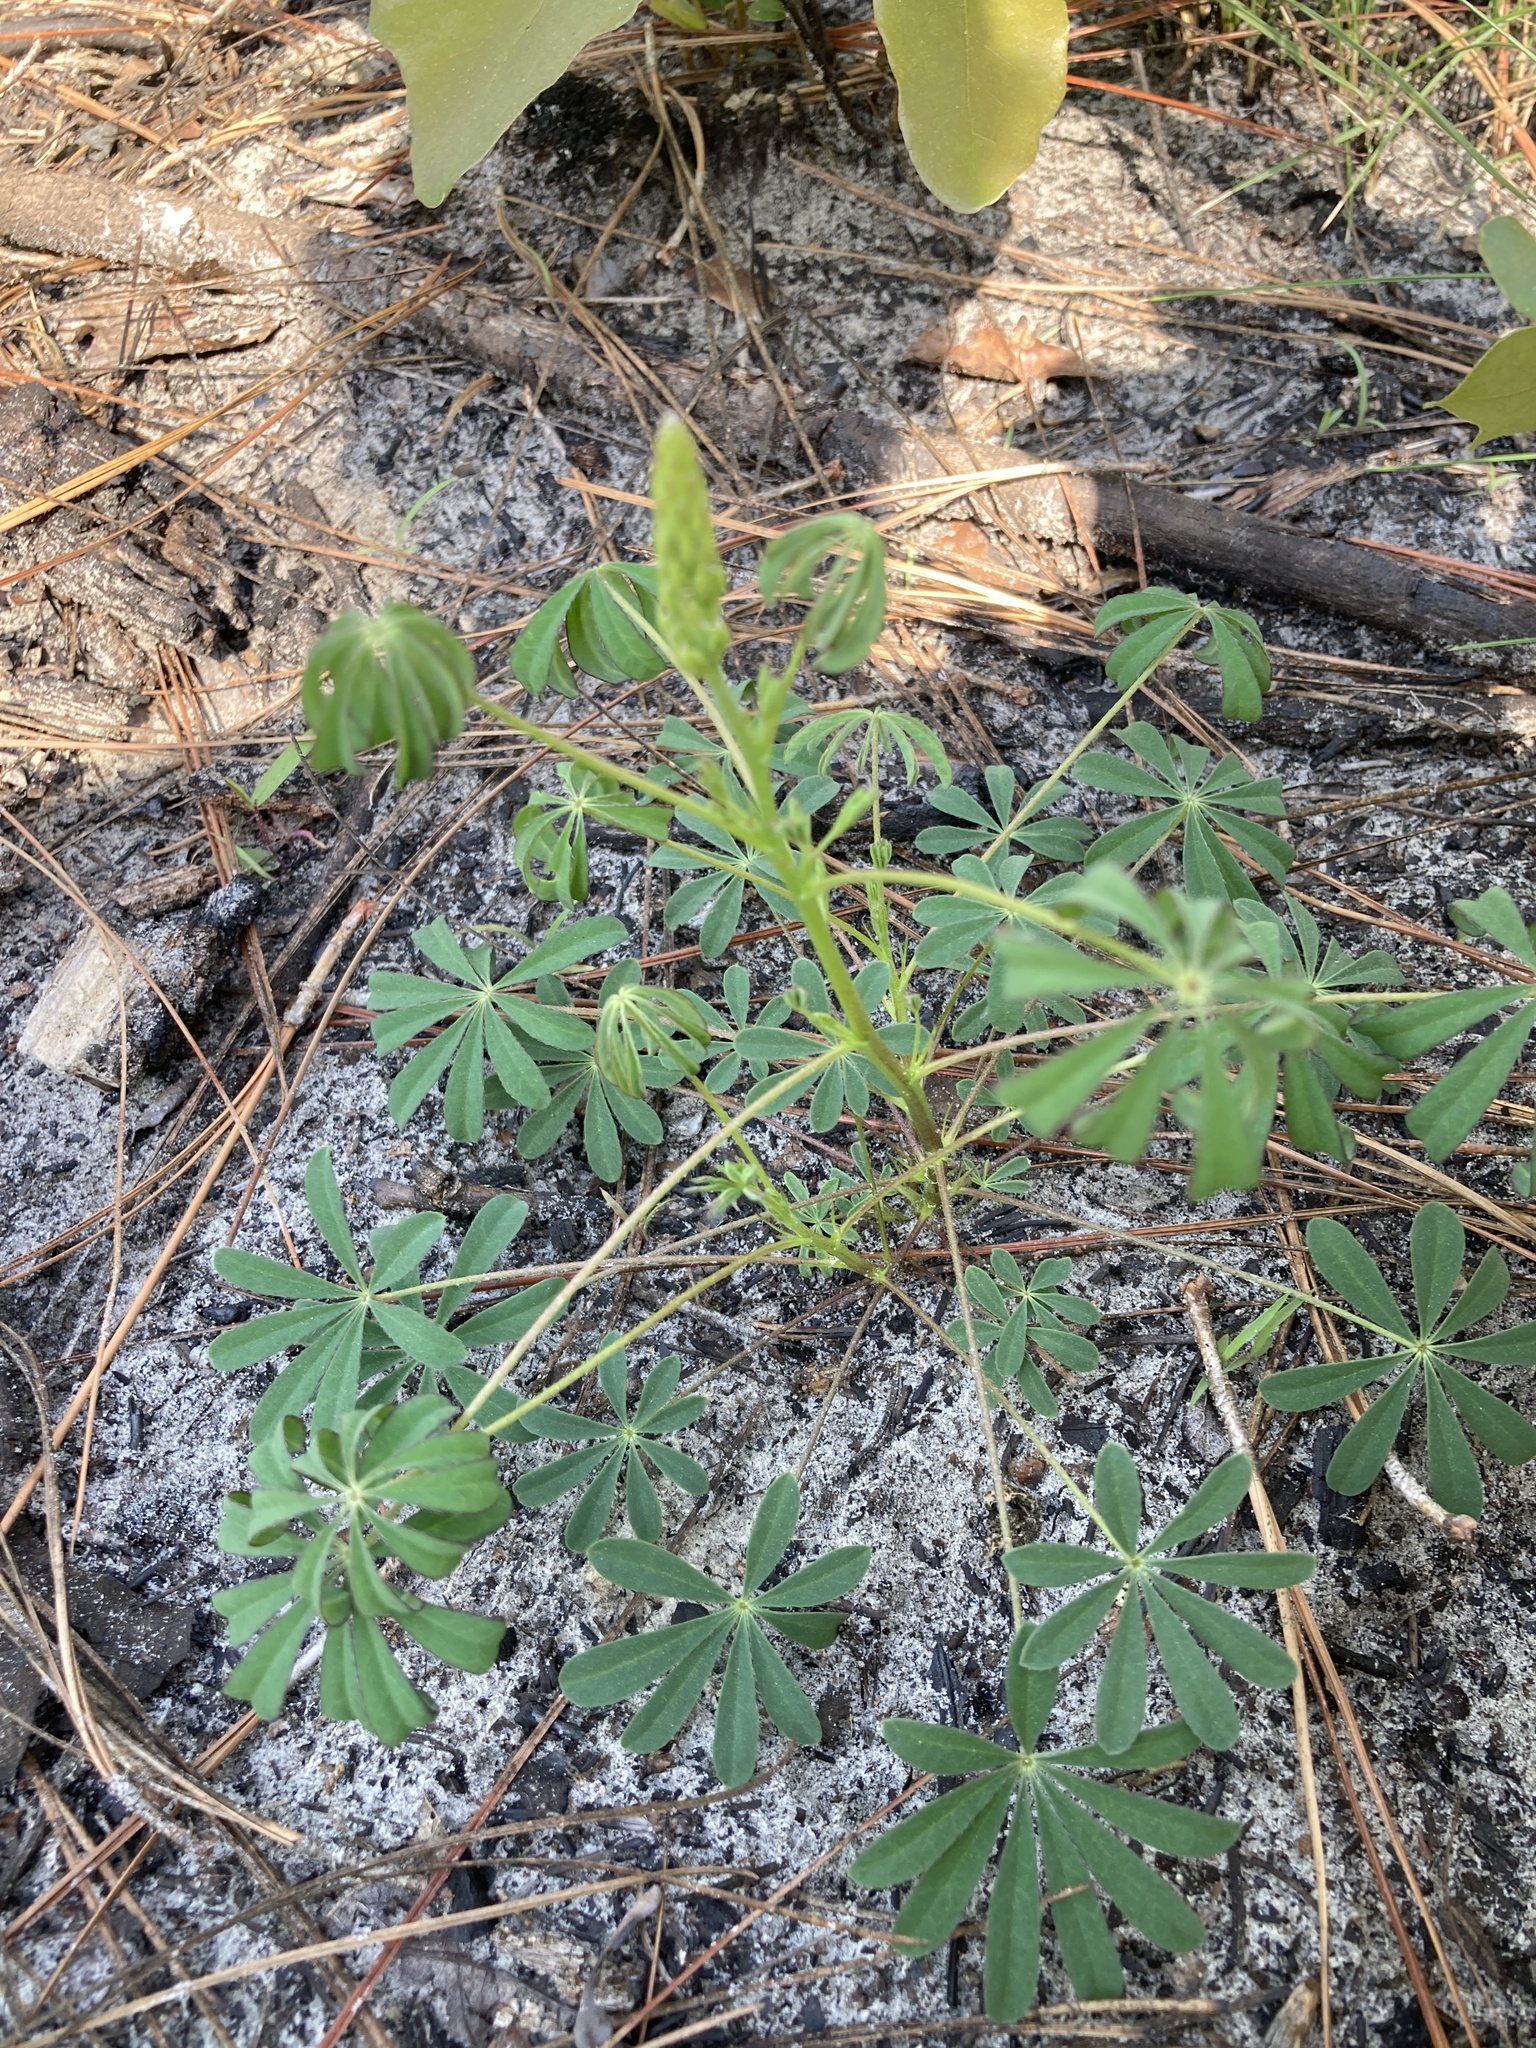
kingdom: Plantae
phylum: Tracheophyta
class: Magnoliopsida
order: Fabales
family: Fabaceae
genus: Lupinus
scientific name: Lupinus perennis
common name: Sundial lupine
